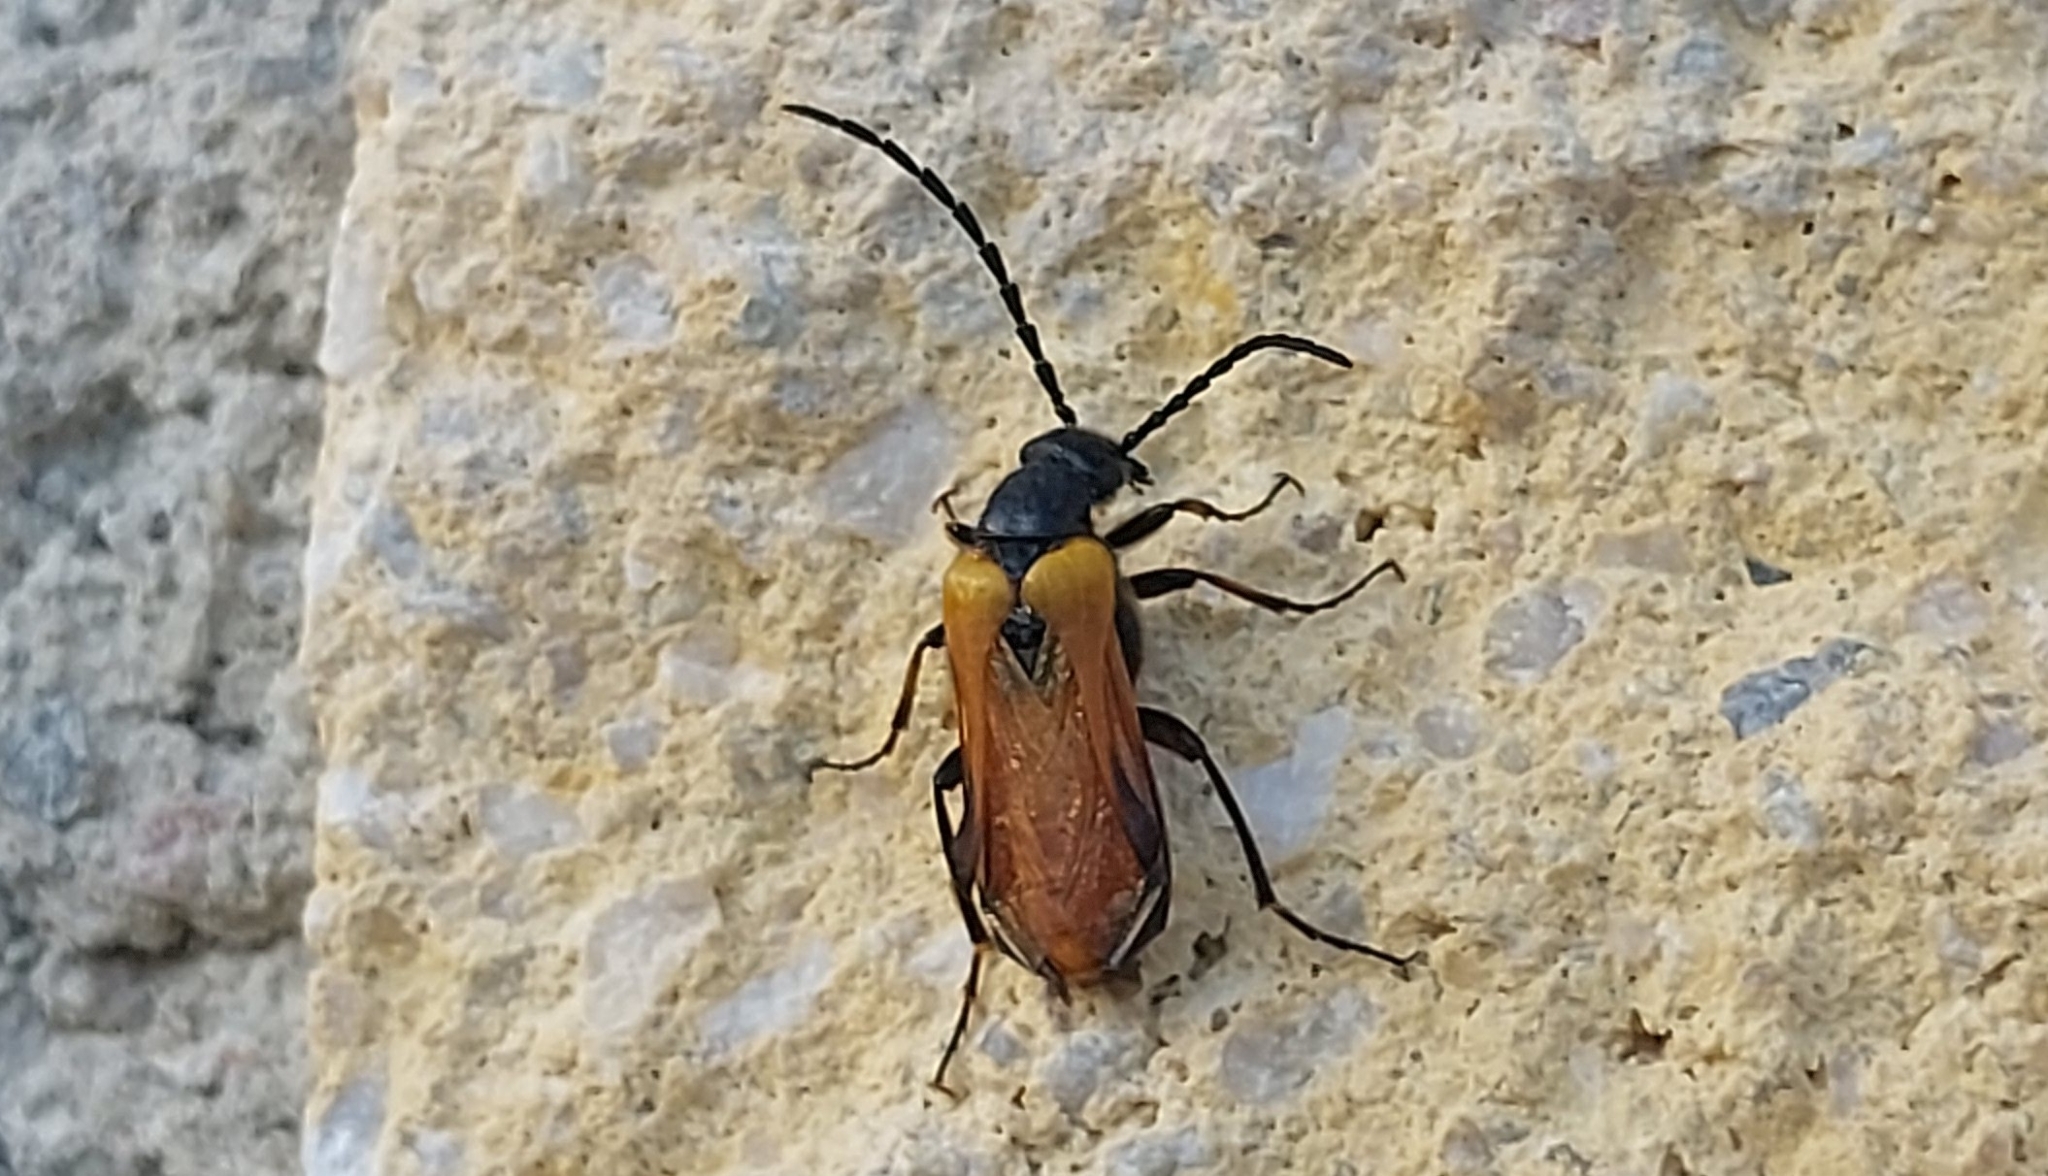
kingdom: Animalia
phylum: Arthropoda
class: Insecta
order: Coleoptera
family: Meloidae
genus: Sitaris
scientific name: Sitaris solieri
